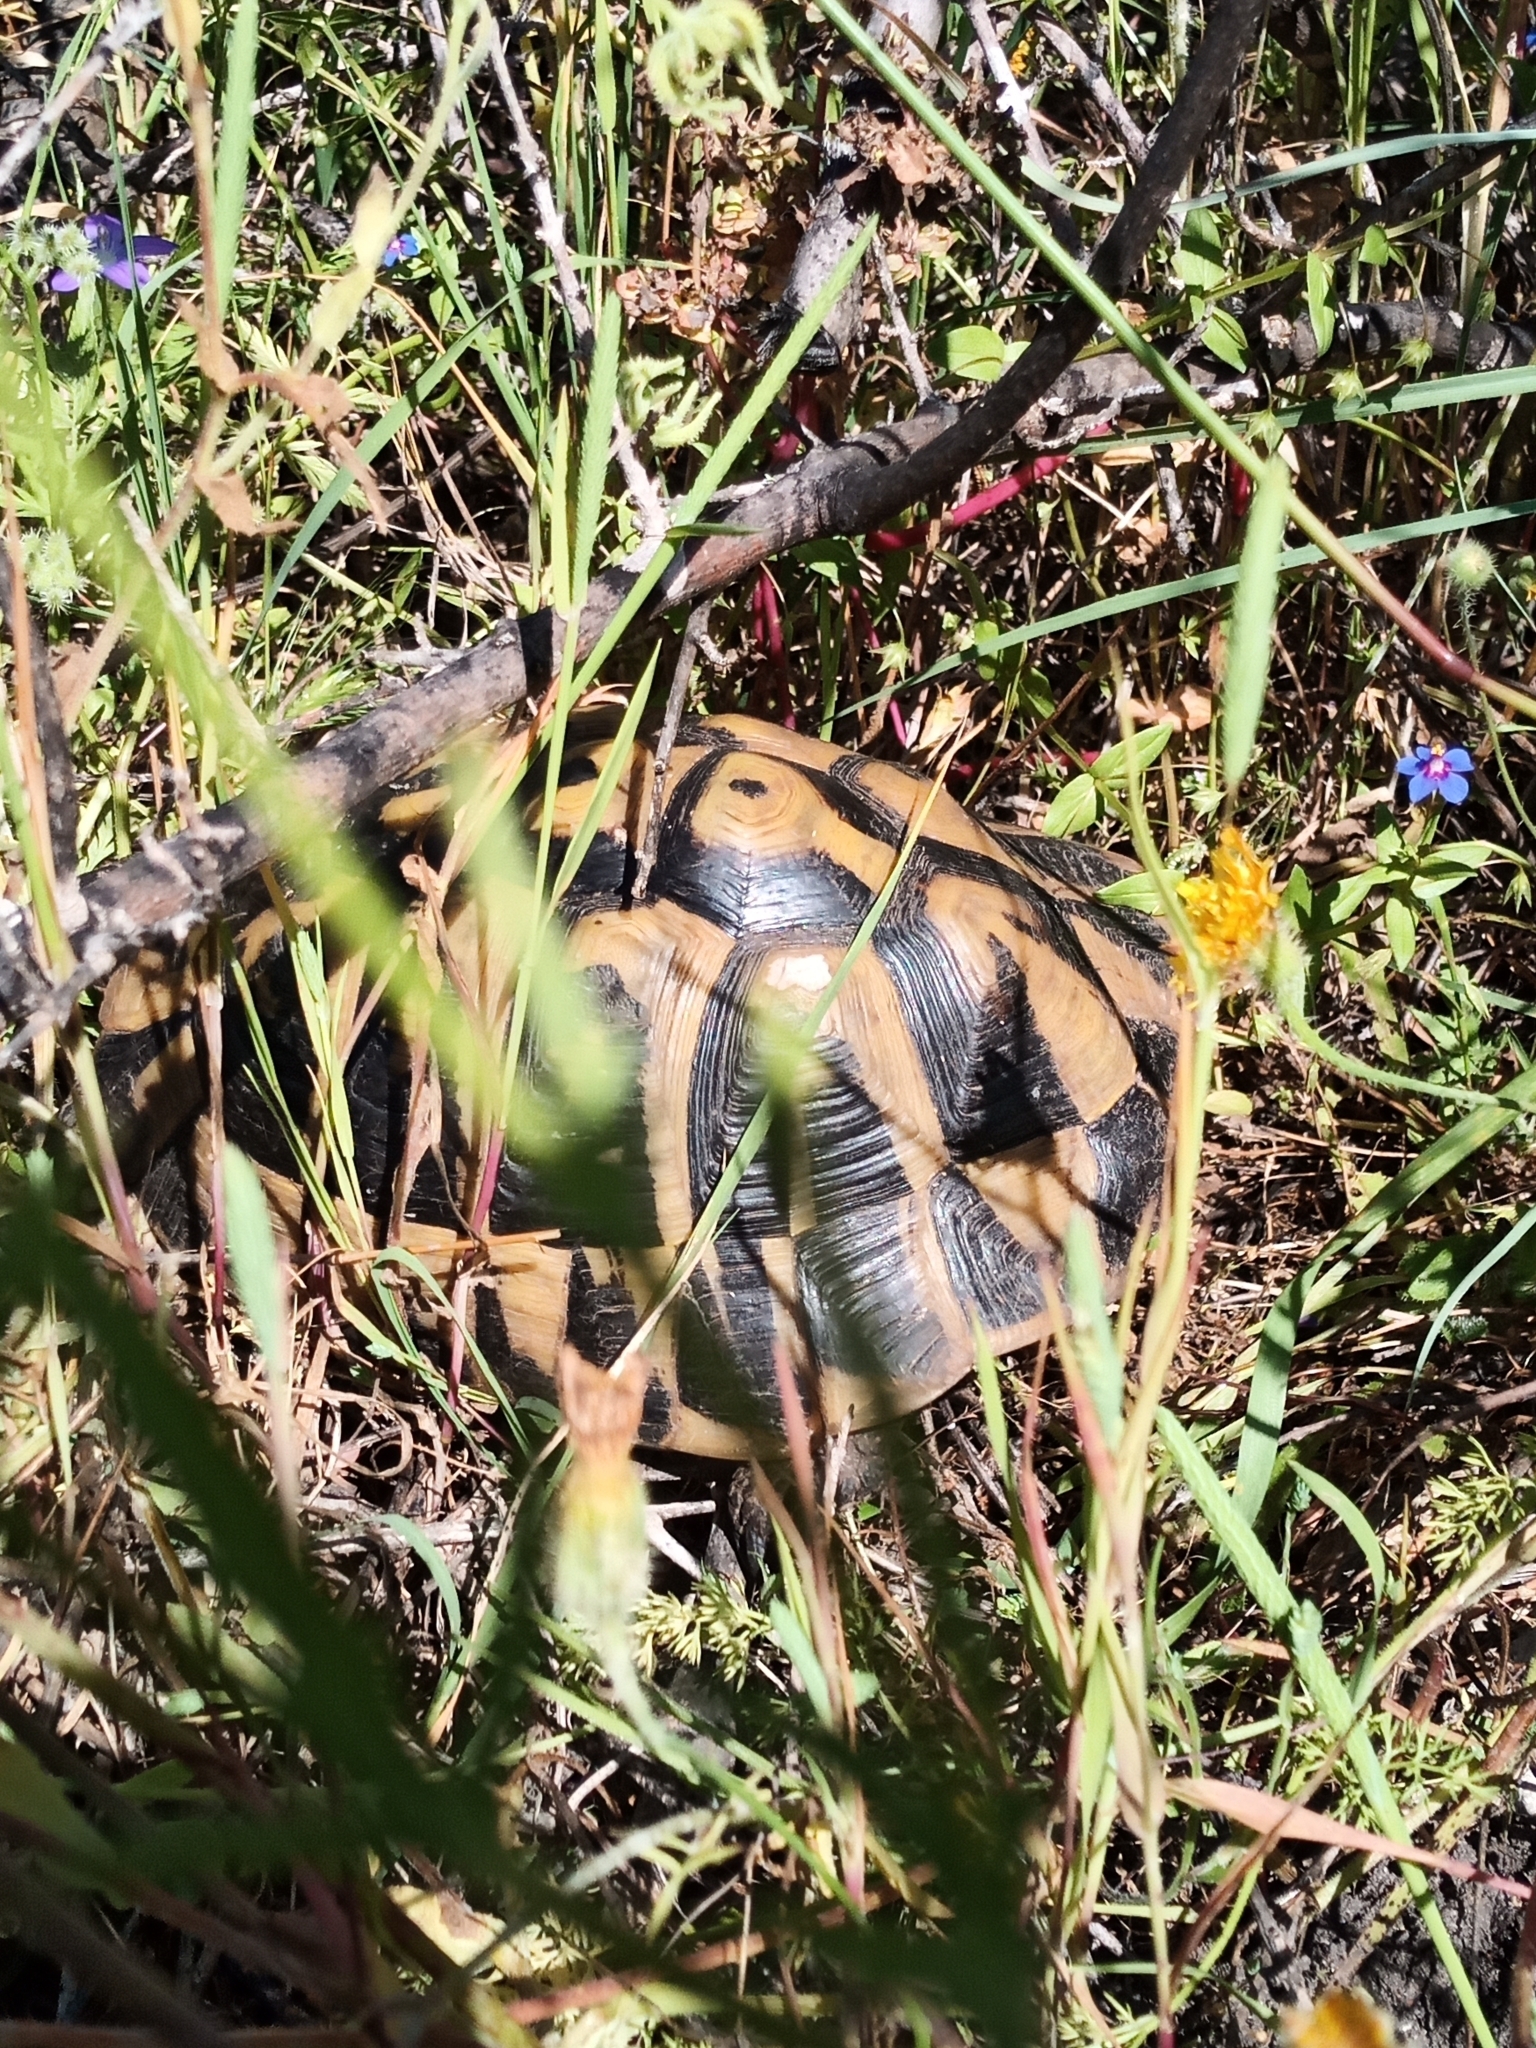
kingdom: Animalia
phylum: Chordata
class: Testudines
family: Testudinidae
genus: Testudo
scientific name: Testudo hermanni
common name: Hermann's tortoise
